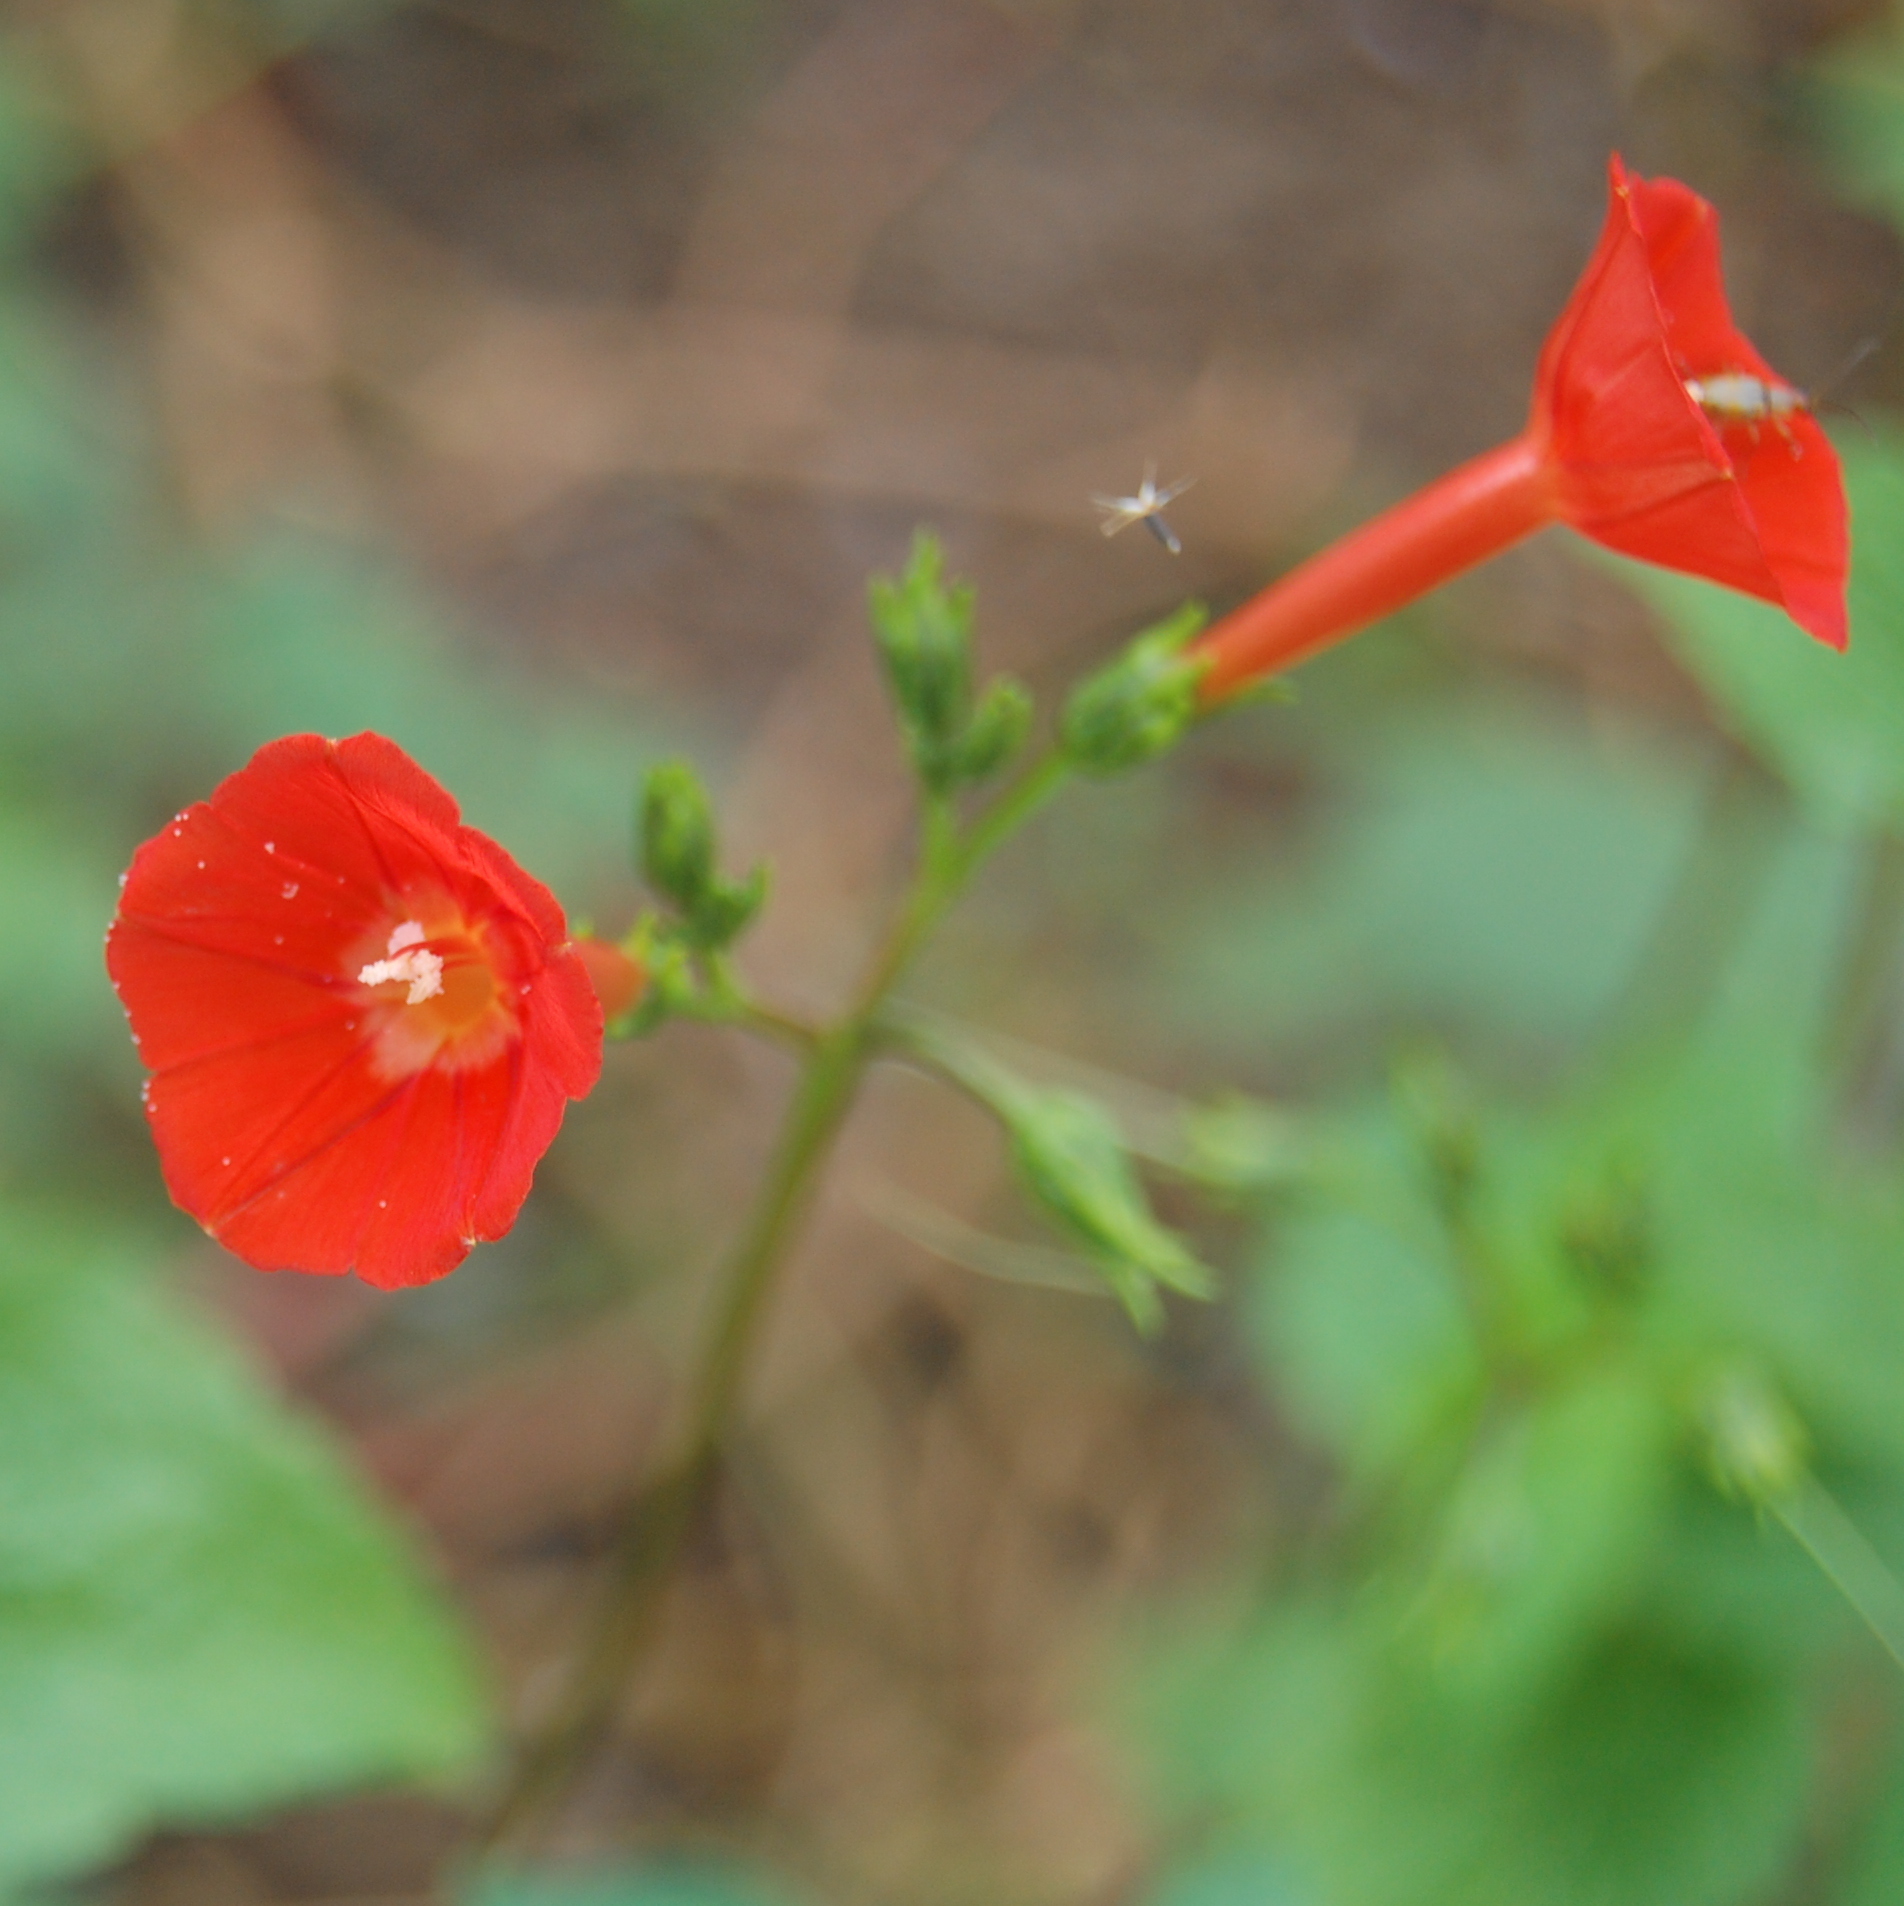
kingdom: Plantae
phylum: Tracheophyta
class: Magnoliopsida
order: Solanales
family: Convolvulaceae
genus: Ipomoea
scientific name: Ipomoea indivisa
